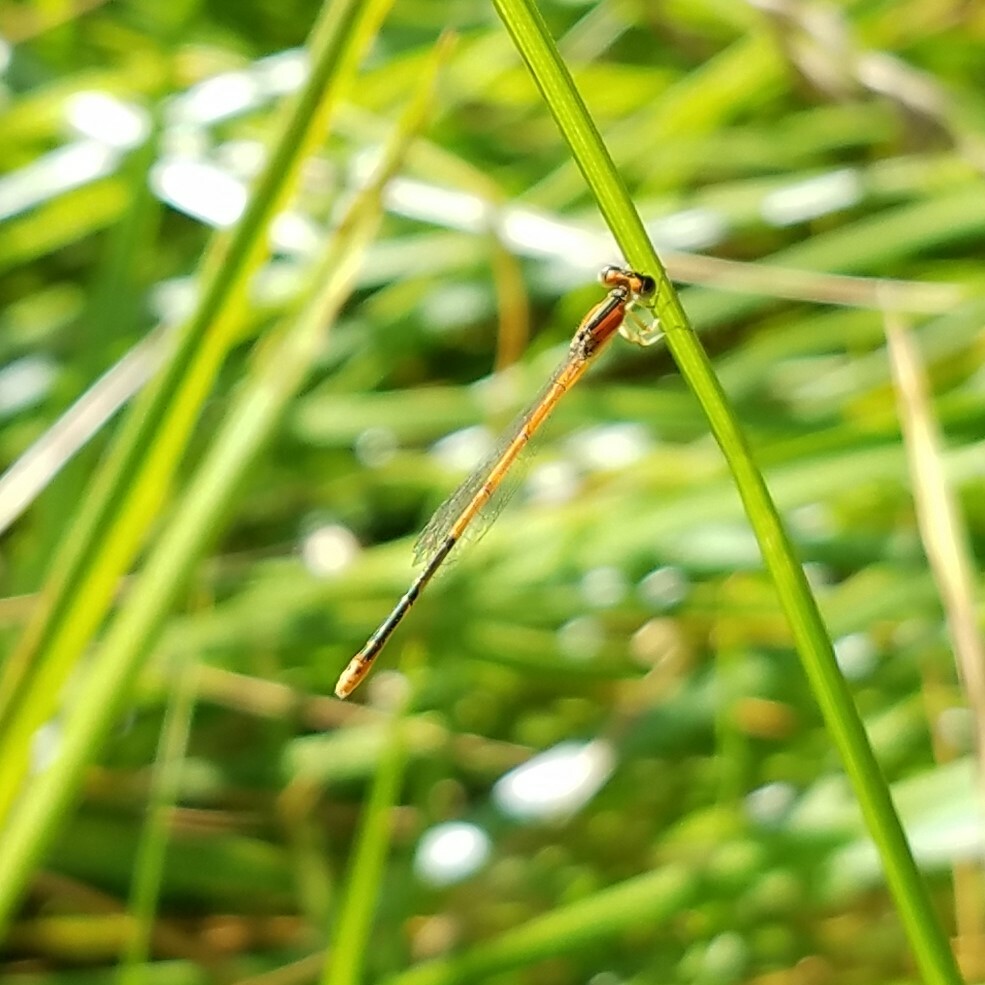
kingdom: Animalia
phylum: Arthropoda
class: Insecta
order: Odonata
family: Coenagrionidae
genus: Ischnura
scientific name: Ischnura hastata
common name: Citrine forktail
